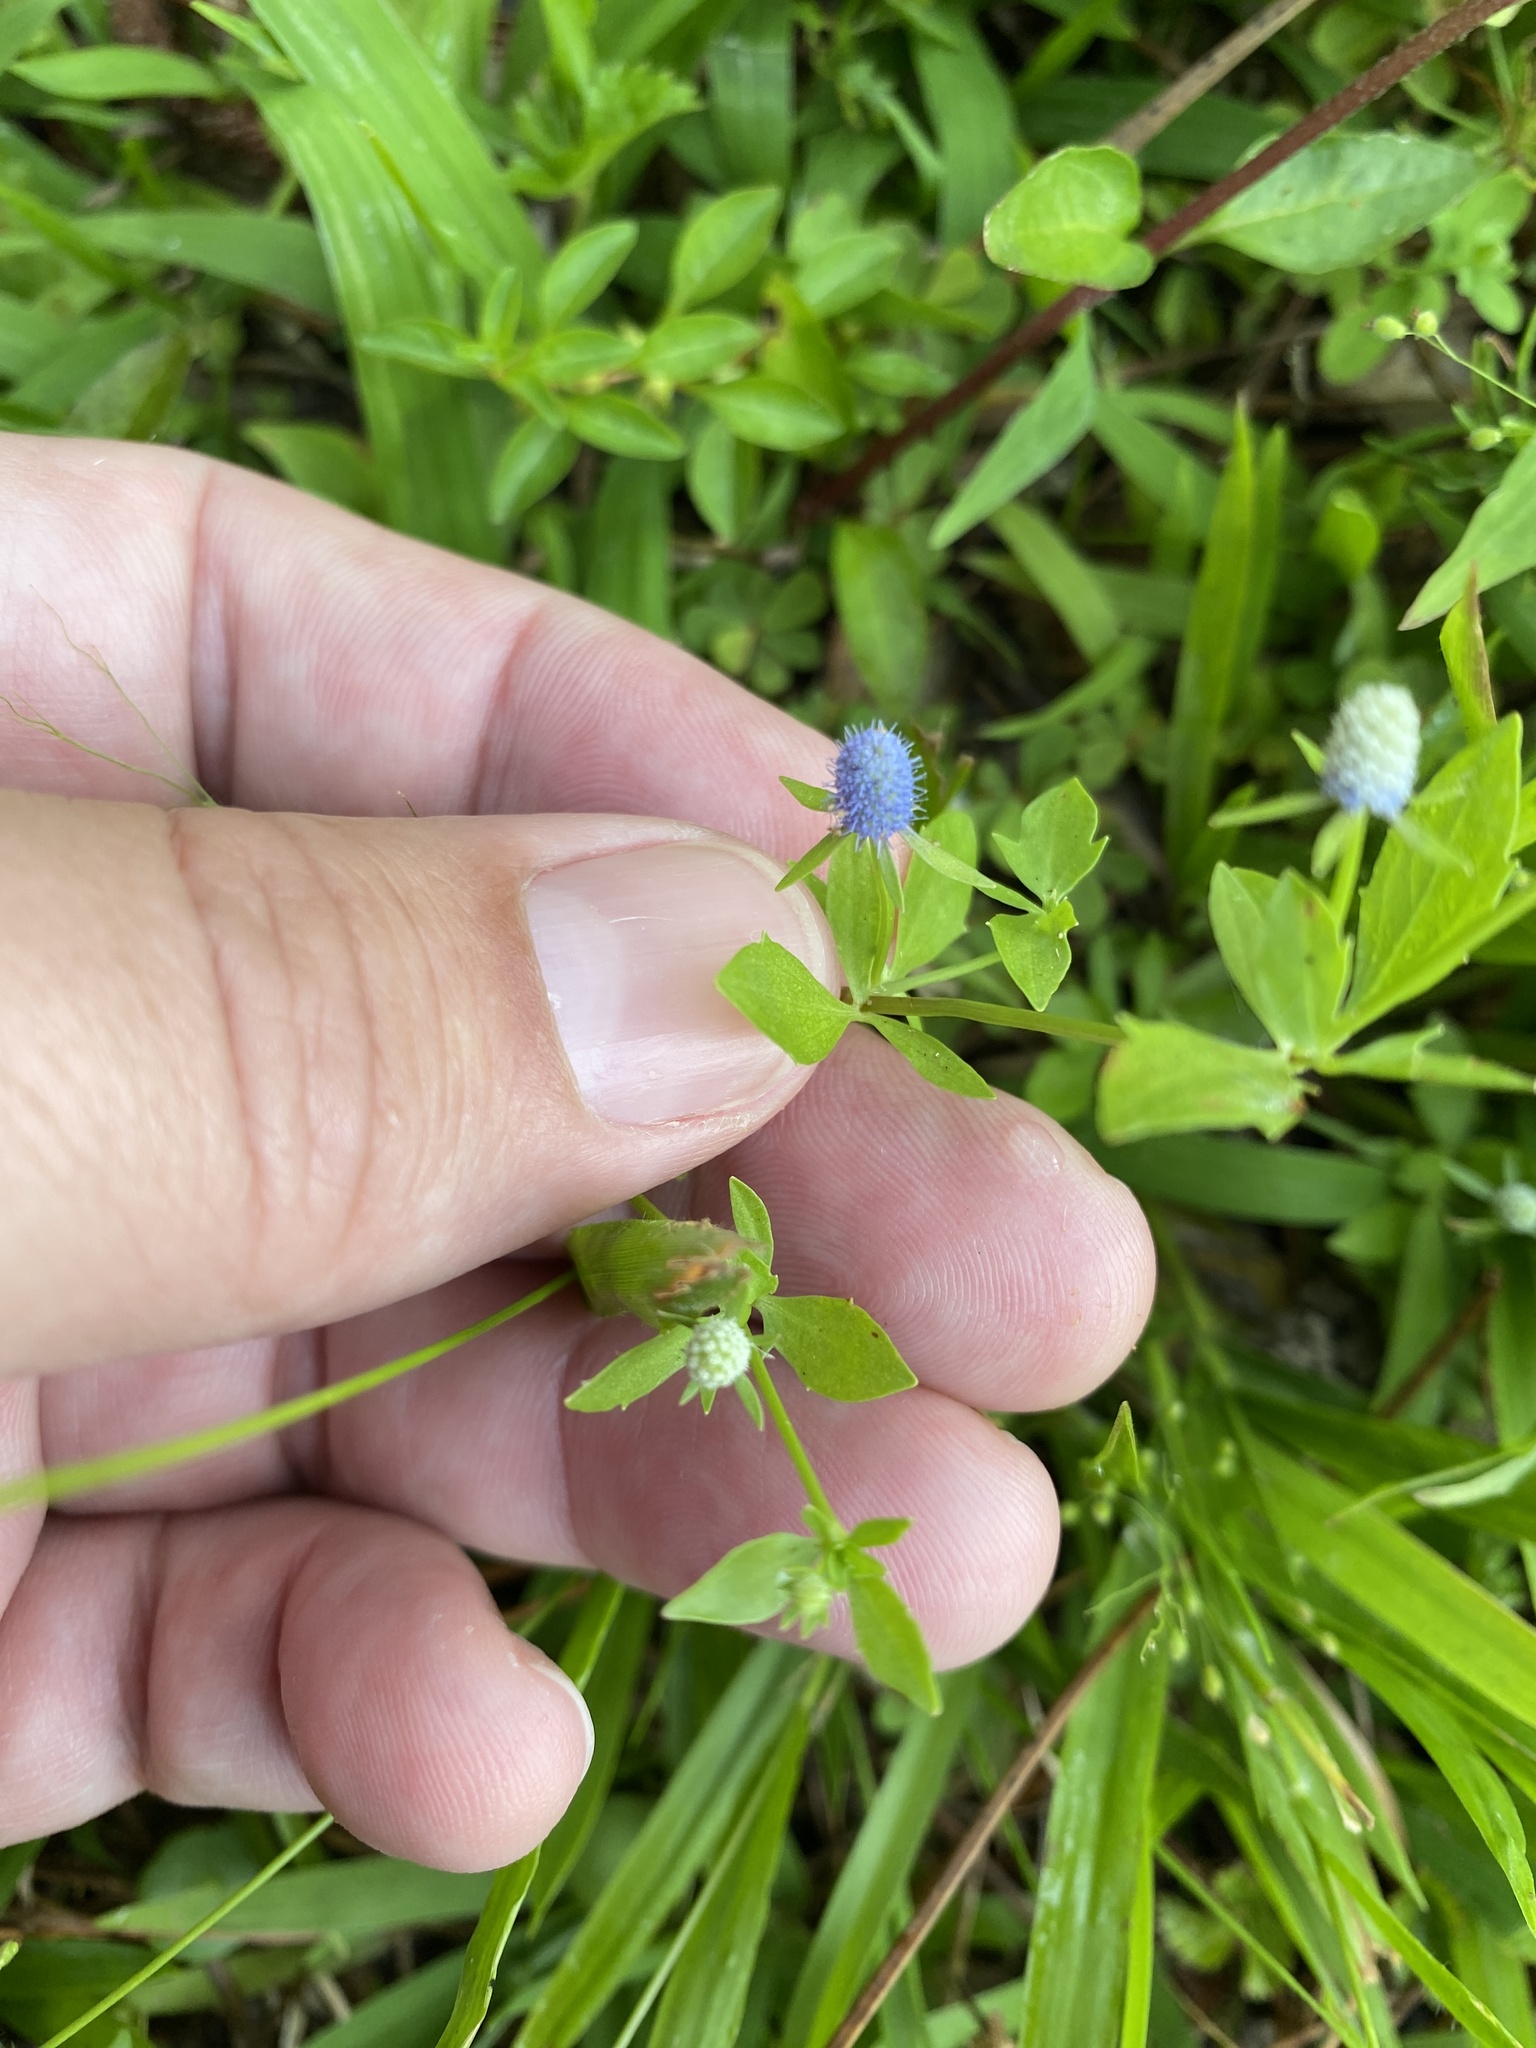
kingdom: Plantae
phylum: Tracheophyta
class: Magnoliopsida
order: Apiales
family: Apiaceae
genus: Eryngium
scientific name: Eryngium prostratum
